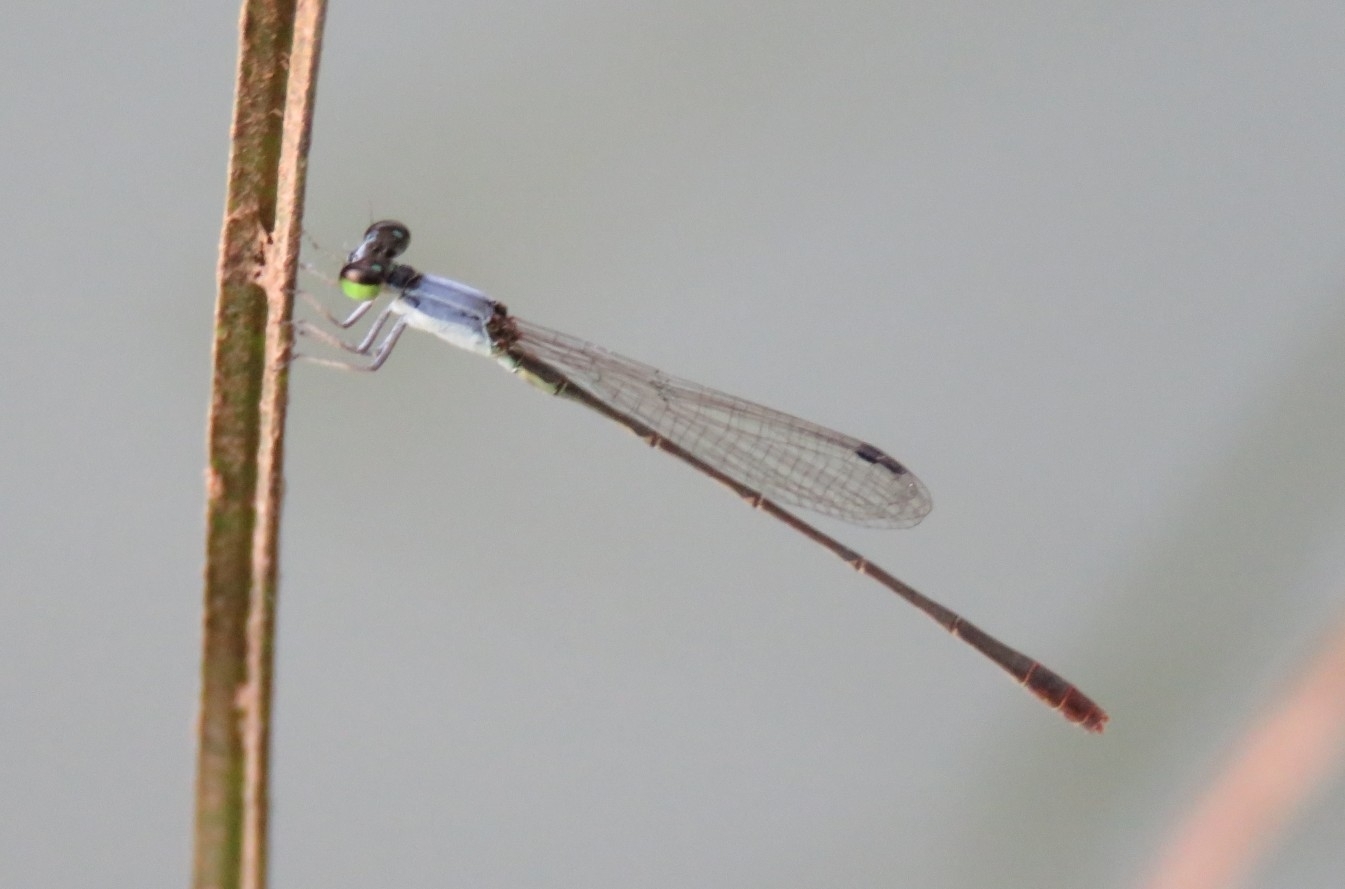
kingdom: Animalia
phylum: Arthropoda
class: Insecta
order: Odonata
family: Coenagrionidae
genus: Agriocnemis
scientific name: Agriocnemis pygmaea
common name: Pygmy wisp
